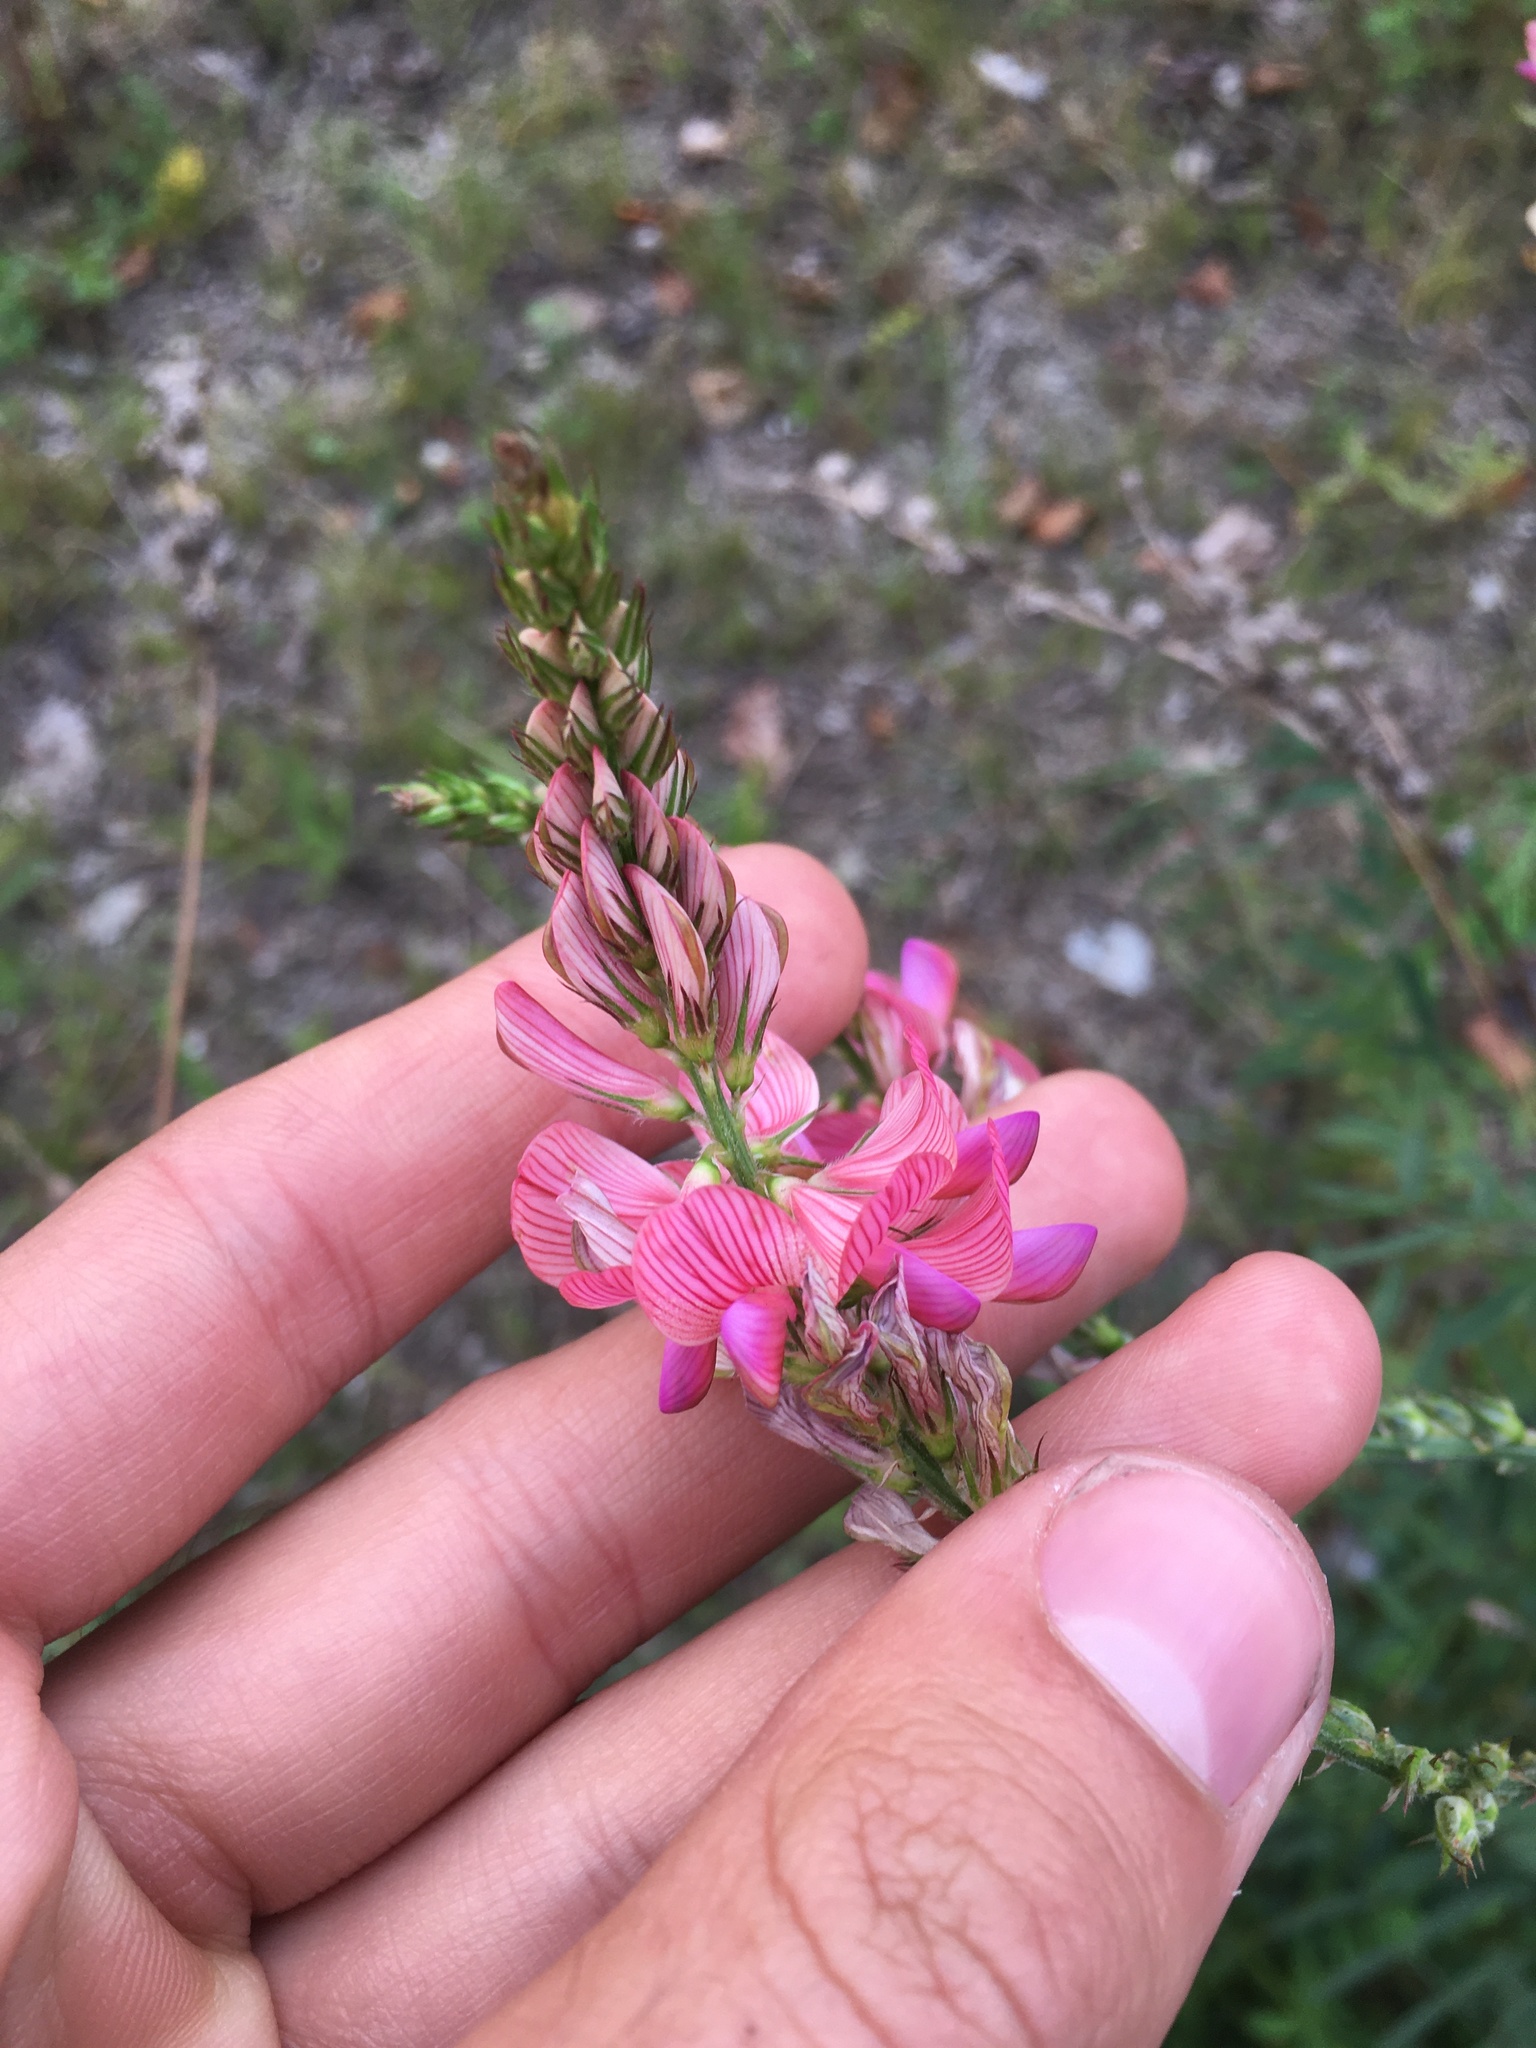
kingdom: Plantae
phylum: Tracheophyta
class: Magnoliopsida
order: Fabales
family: Fabaceae
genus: Onobrychis
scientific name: Onobrychis viciifolia
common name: Sainfoin
